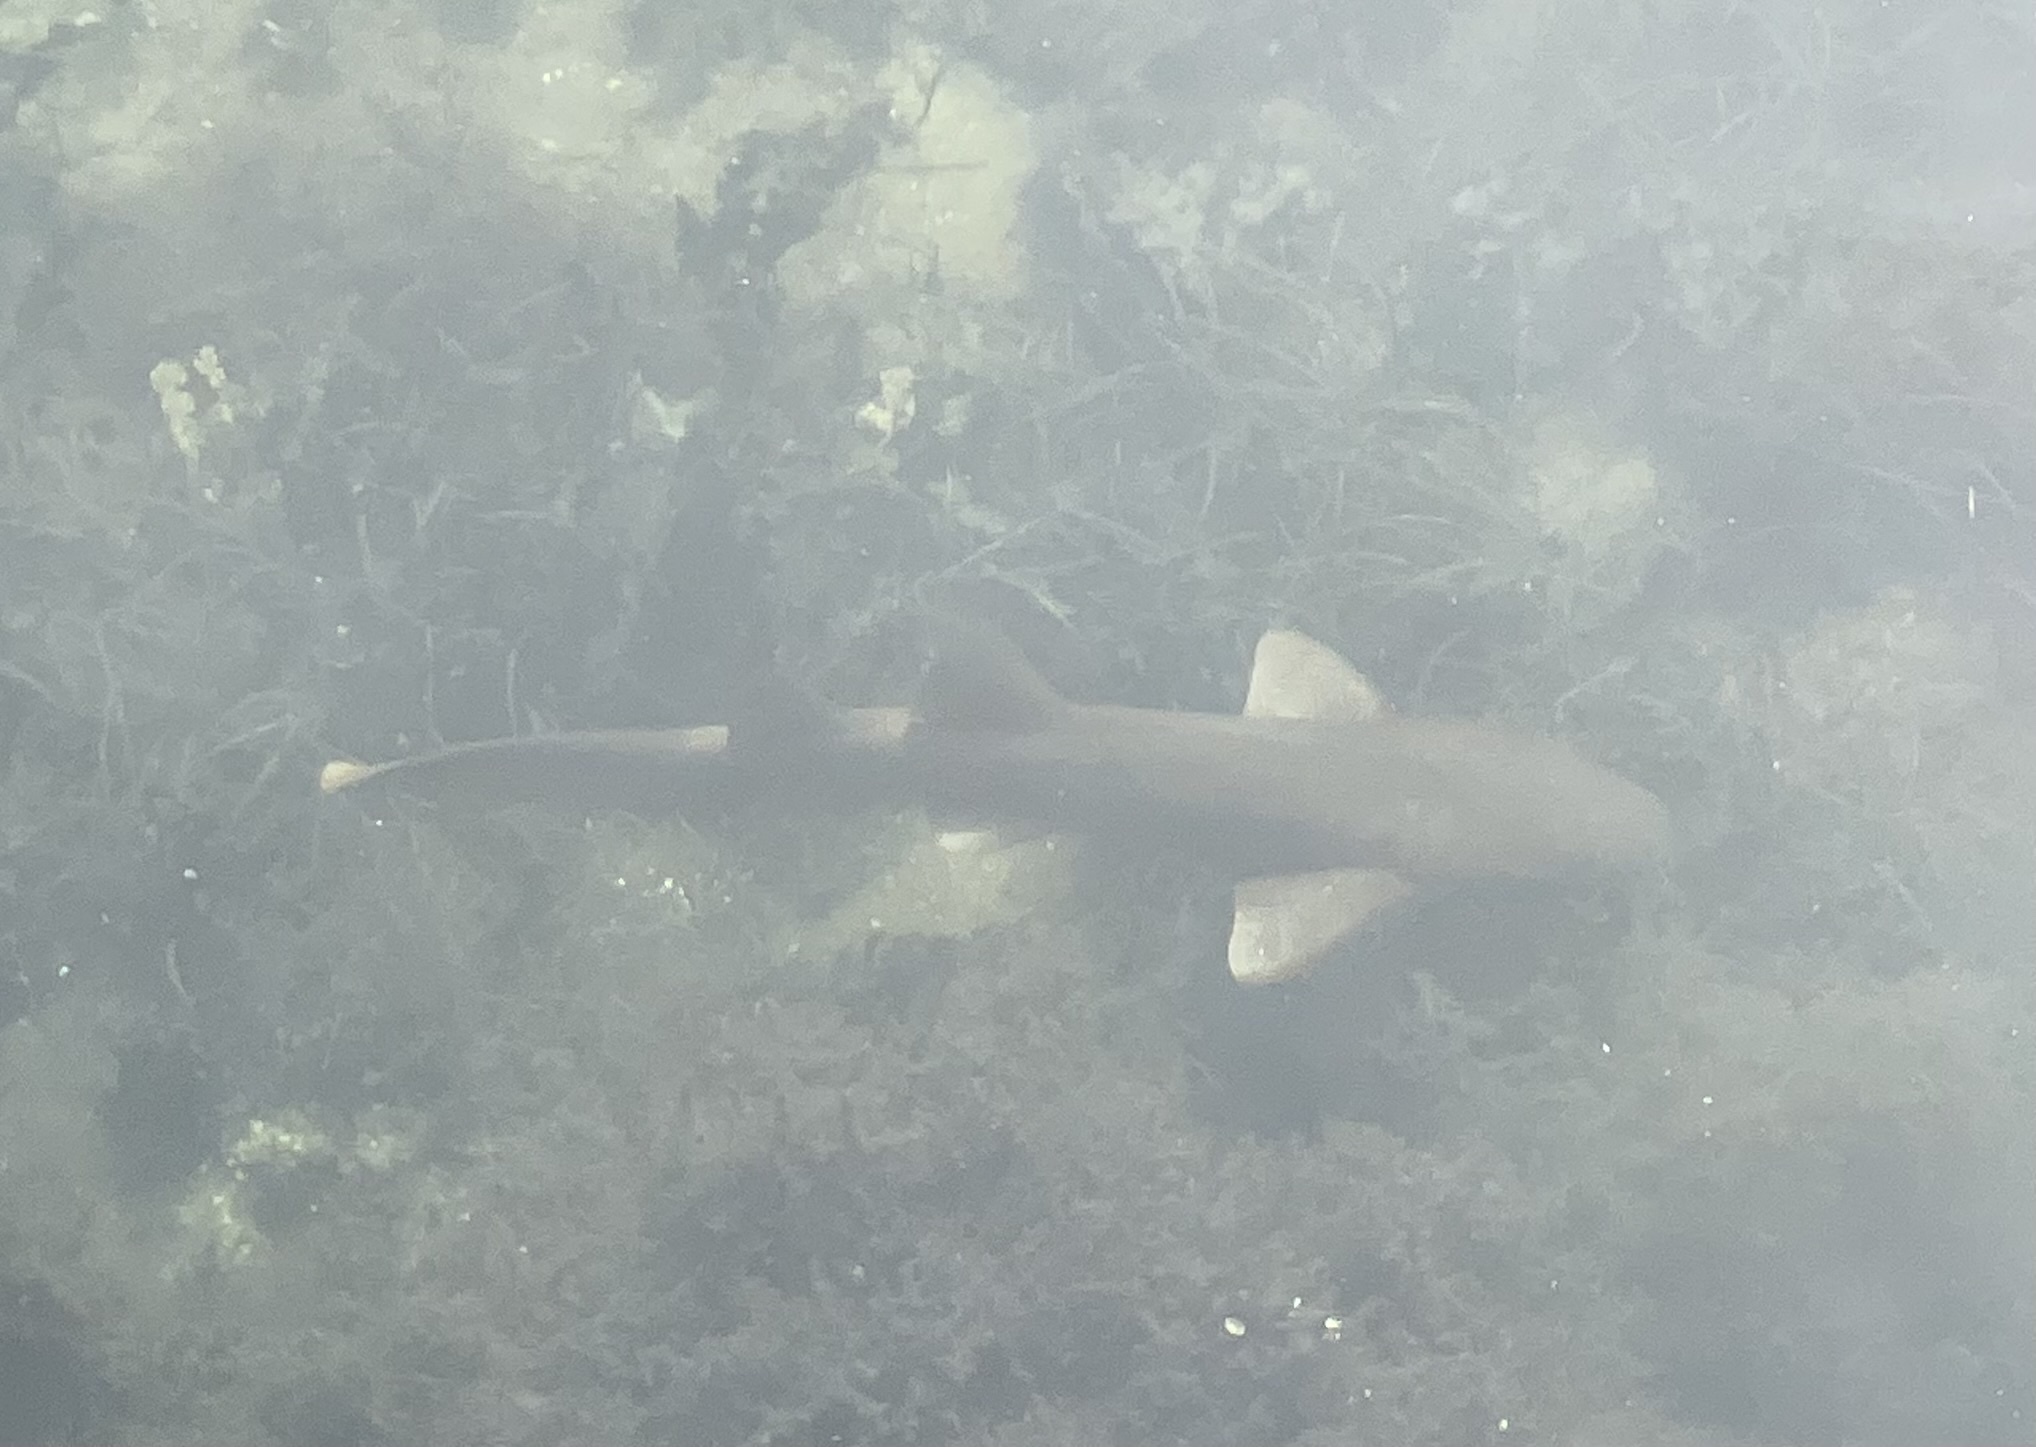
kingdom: Animalia
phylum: Chordata
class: Elasmobranchii
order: Orectolobiformes
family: Ginglymostomatidae
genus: Ginglymostoma
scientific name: Ginglymostoma cirratum
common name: Nurse shark
